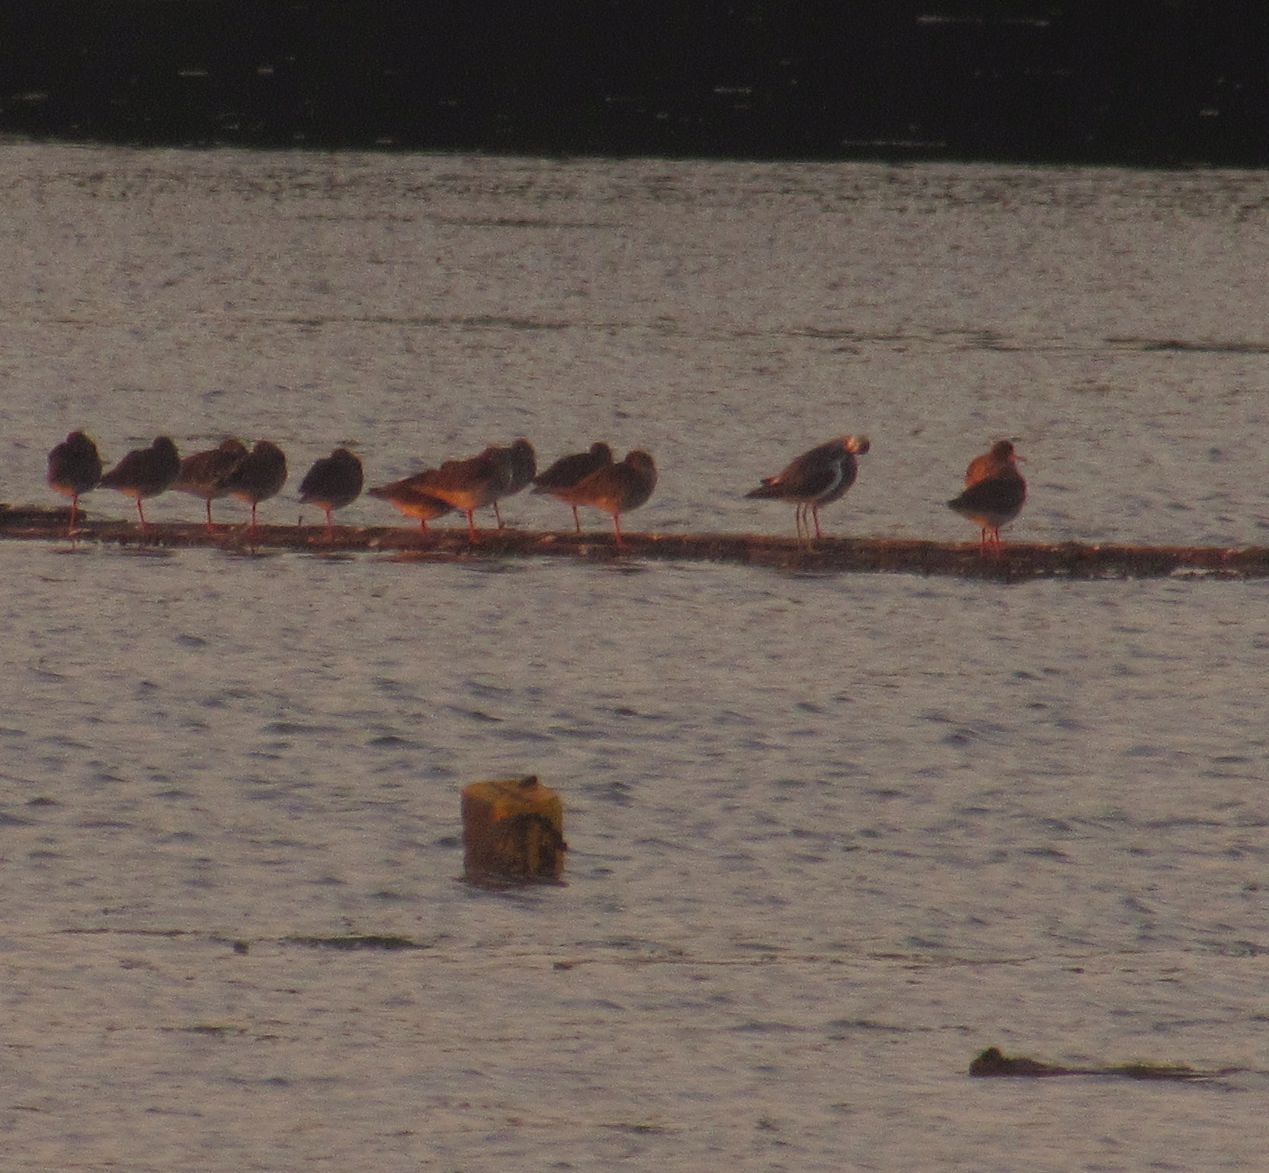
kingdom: Animalia
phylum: Chordata
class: Aves
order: Charadriiformes
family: Scolopacidae
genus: Tringa
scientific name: Tringa totanus
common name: Common redshank
